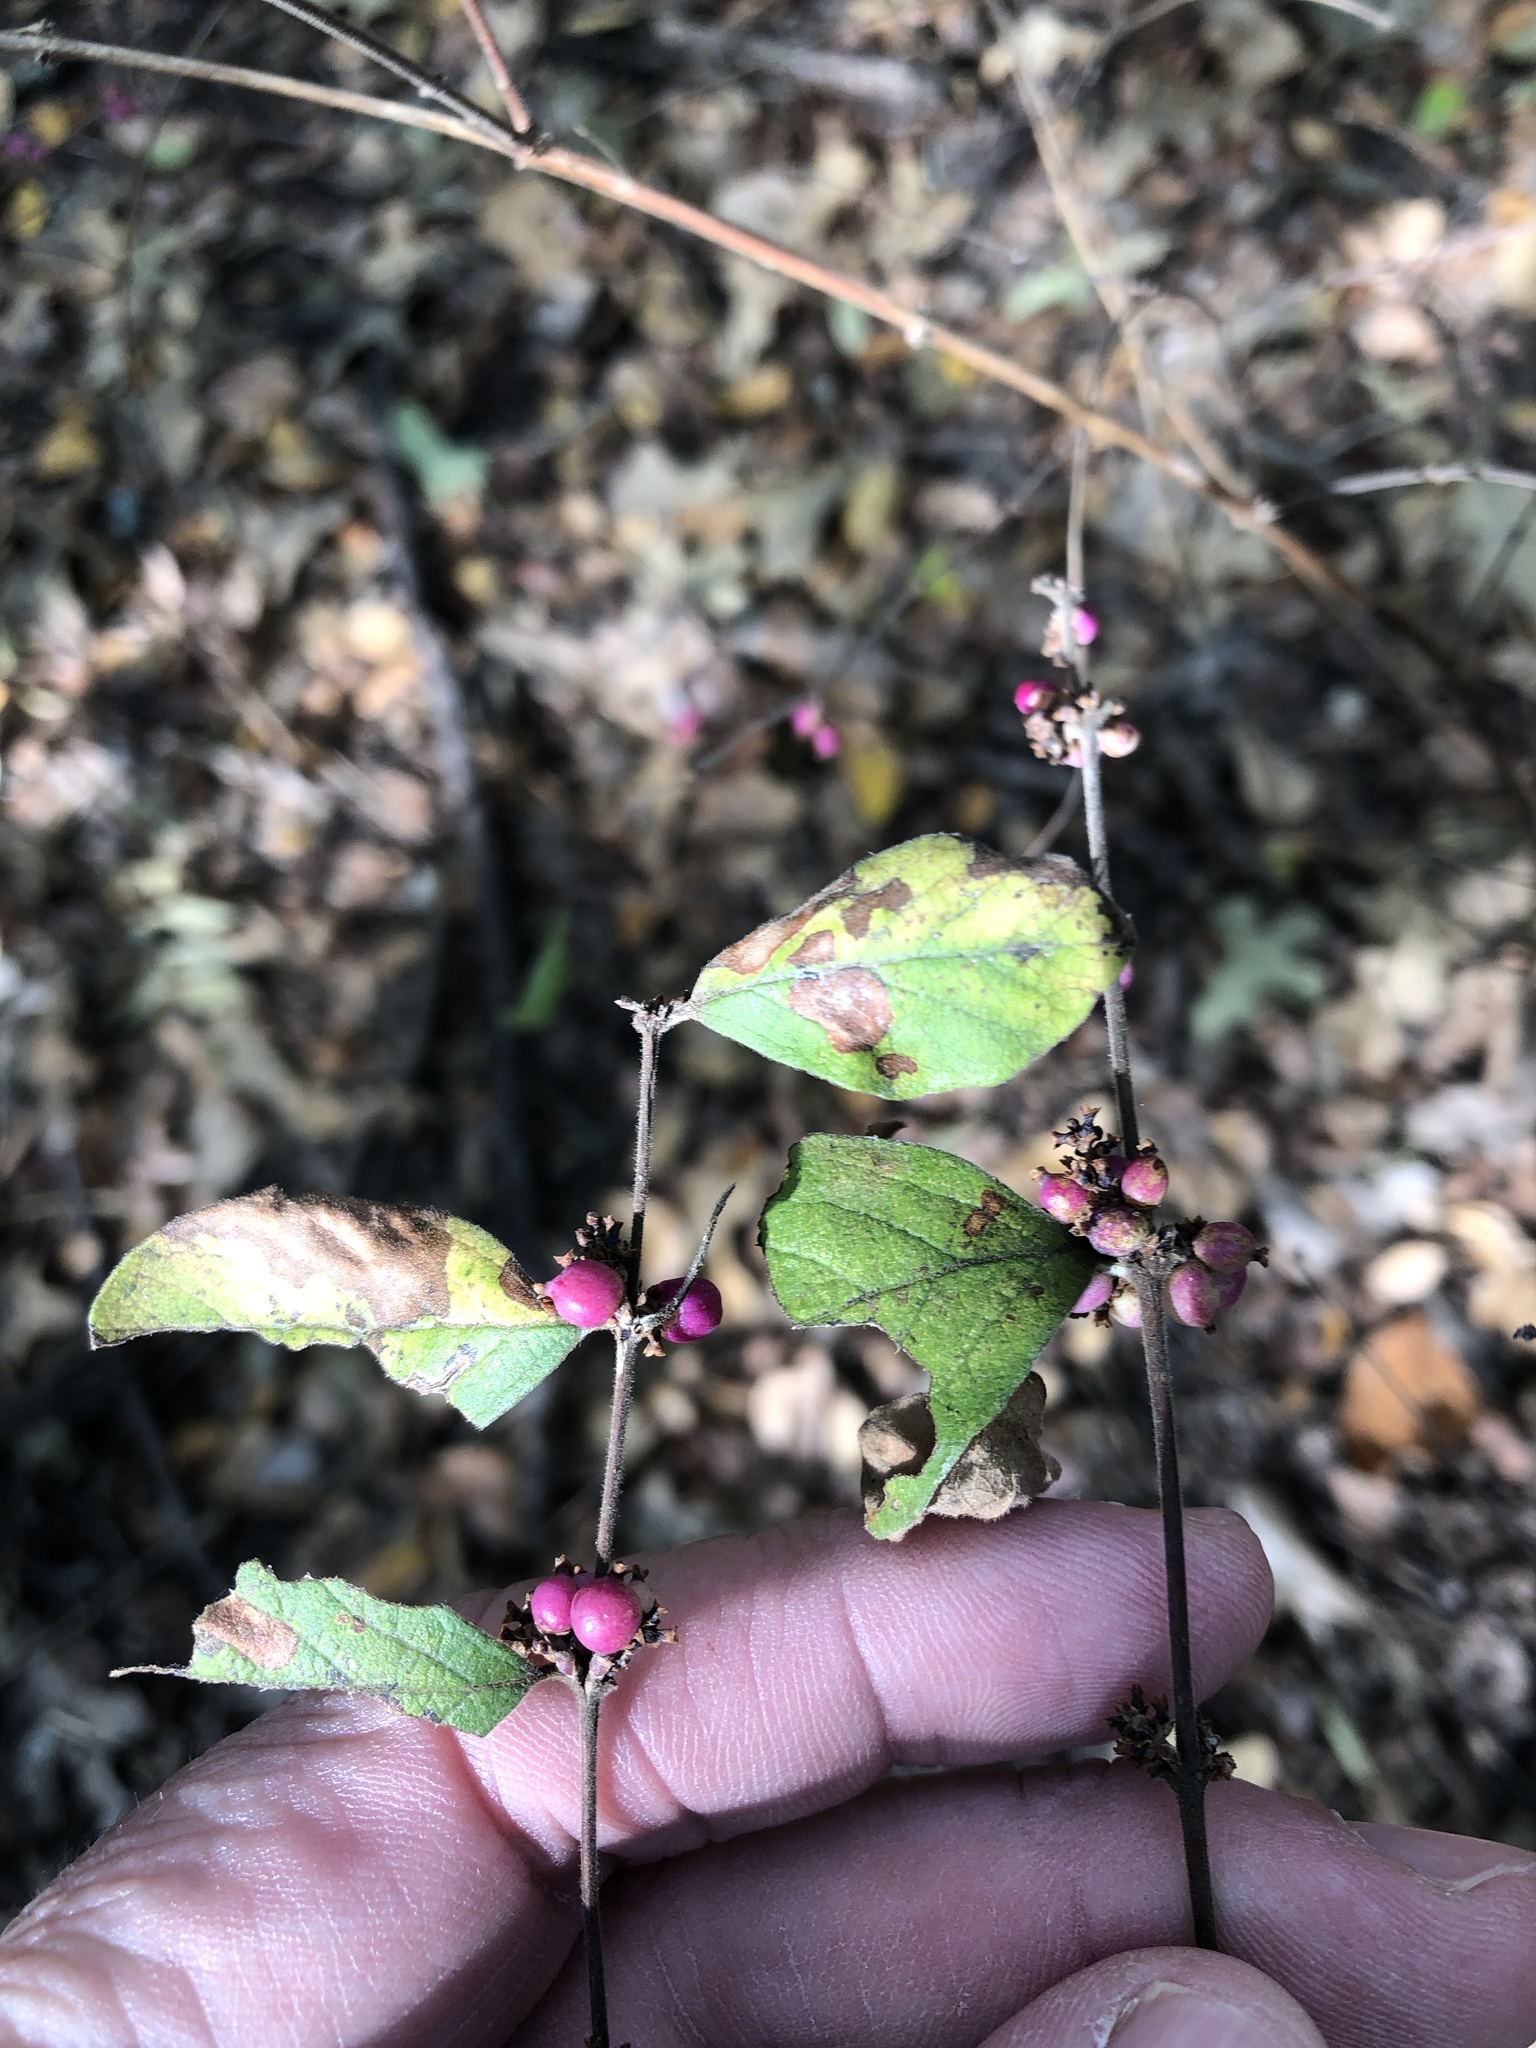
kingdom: Plantae
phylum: Tracheophyta
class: Magnoliopsida
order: Dipsacales
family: Caprifoliaceae
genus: Symphoricarpos
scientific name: Symphoricarpos orbiculatus
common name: Coralberry
